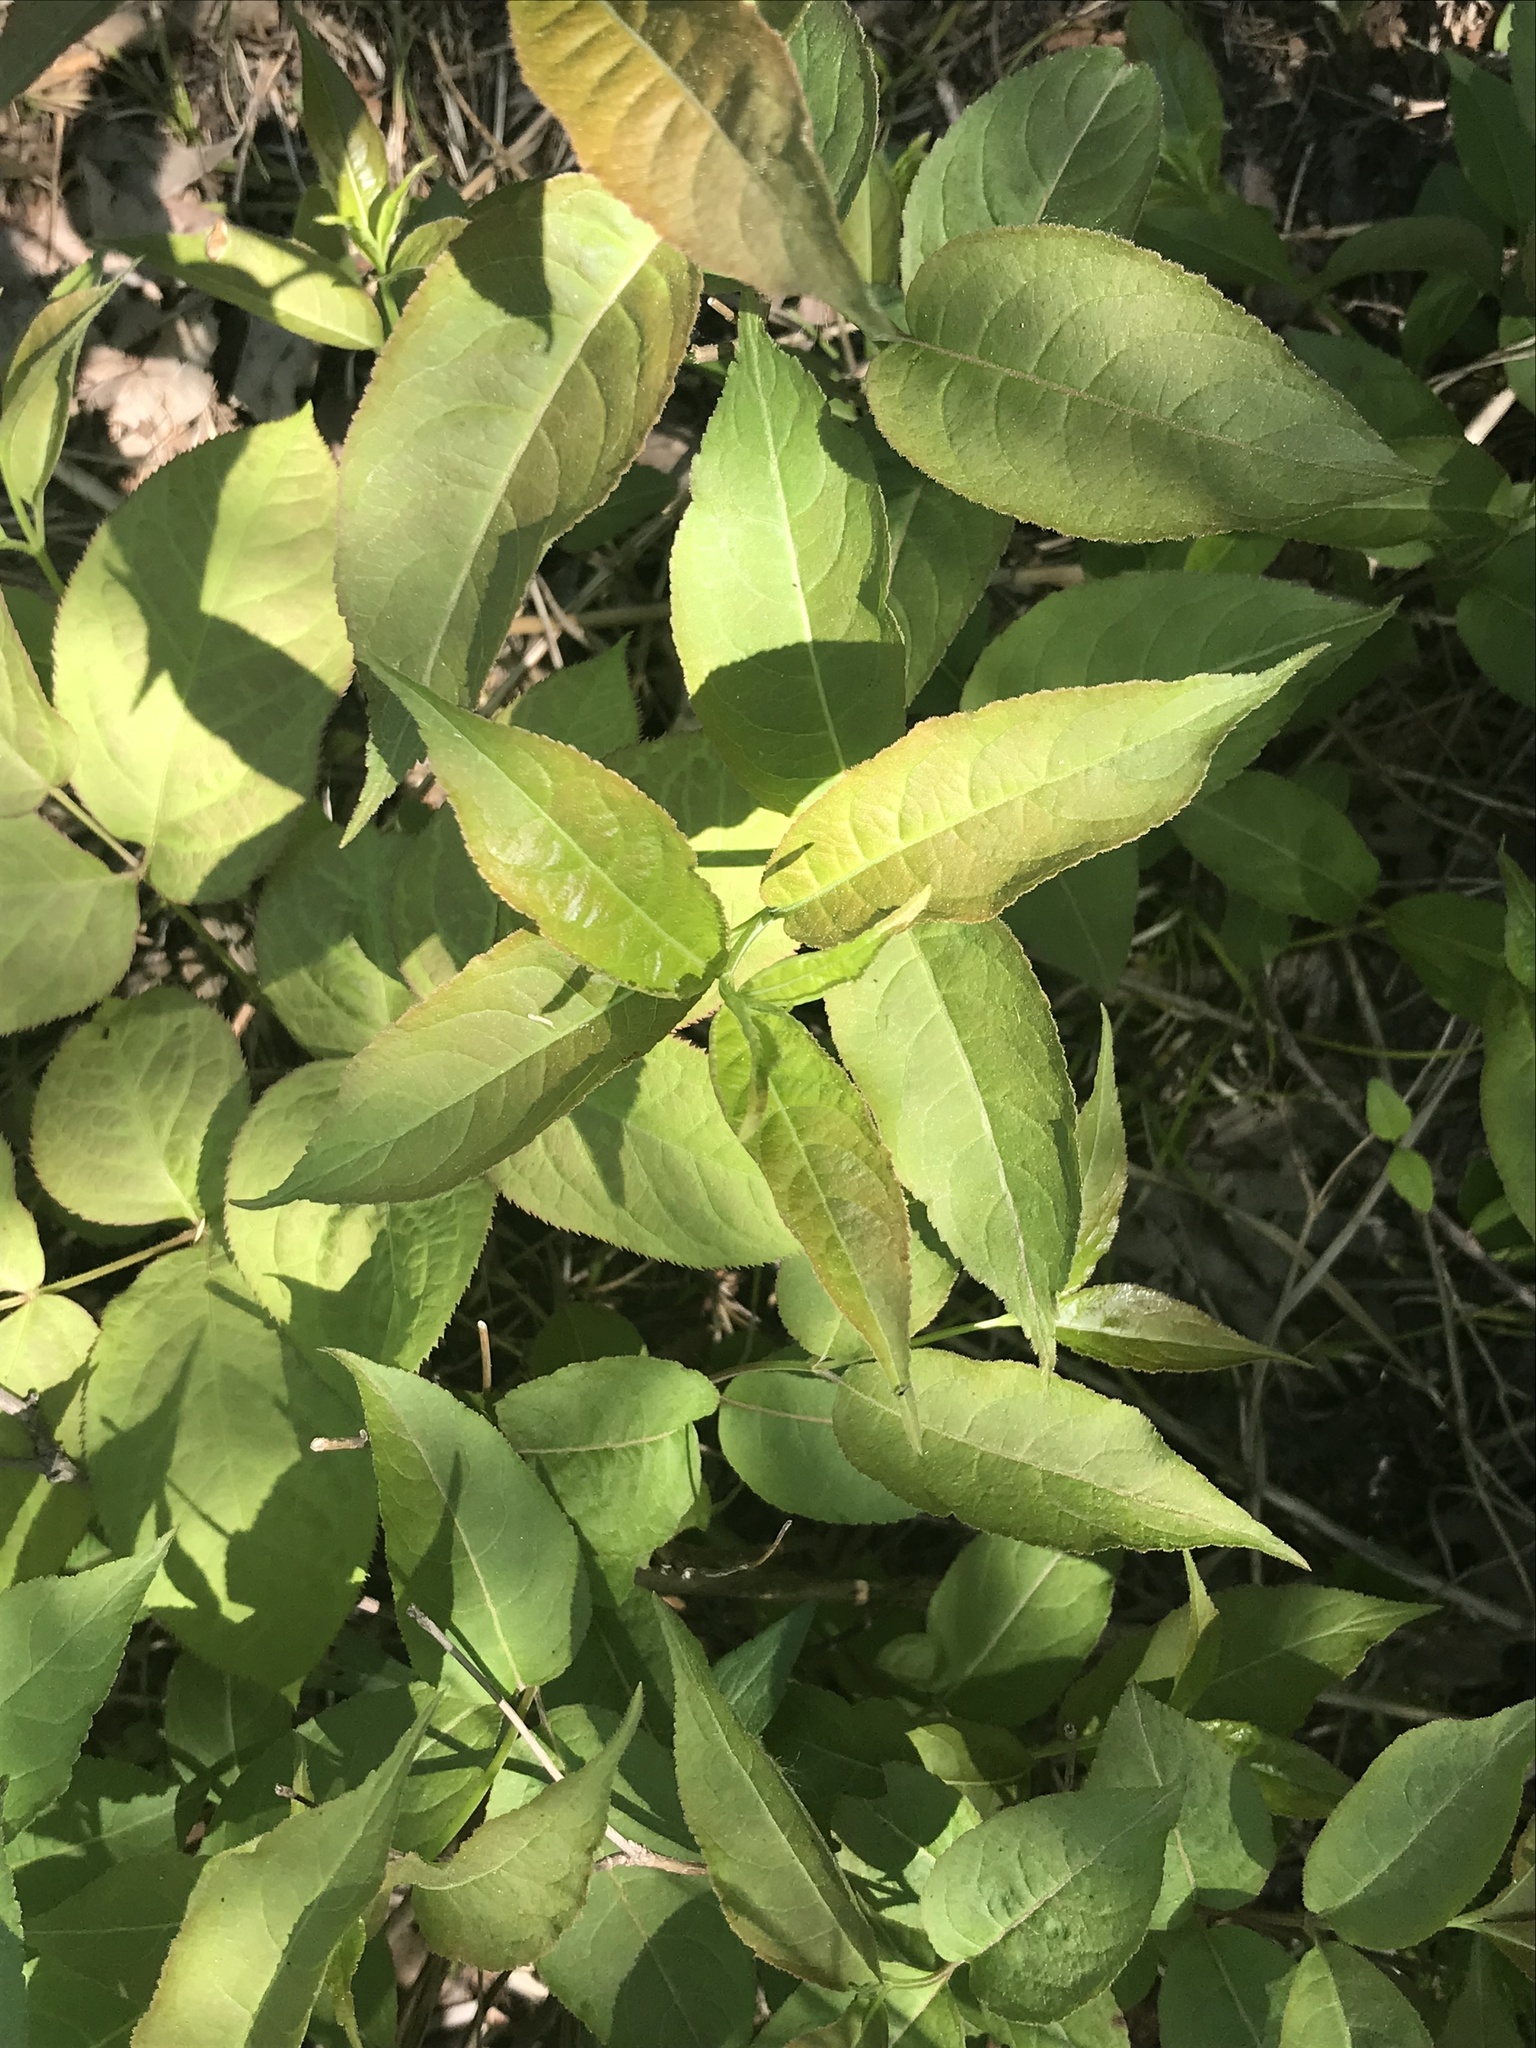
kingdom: Plantae
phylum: Tracheophyta
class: Magnoliopsida
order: Dipsacales
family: Caprifoliaceae
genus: Diervilla
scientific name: Diervilla lonicera
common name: Bush-honeysuckle
